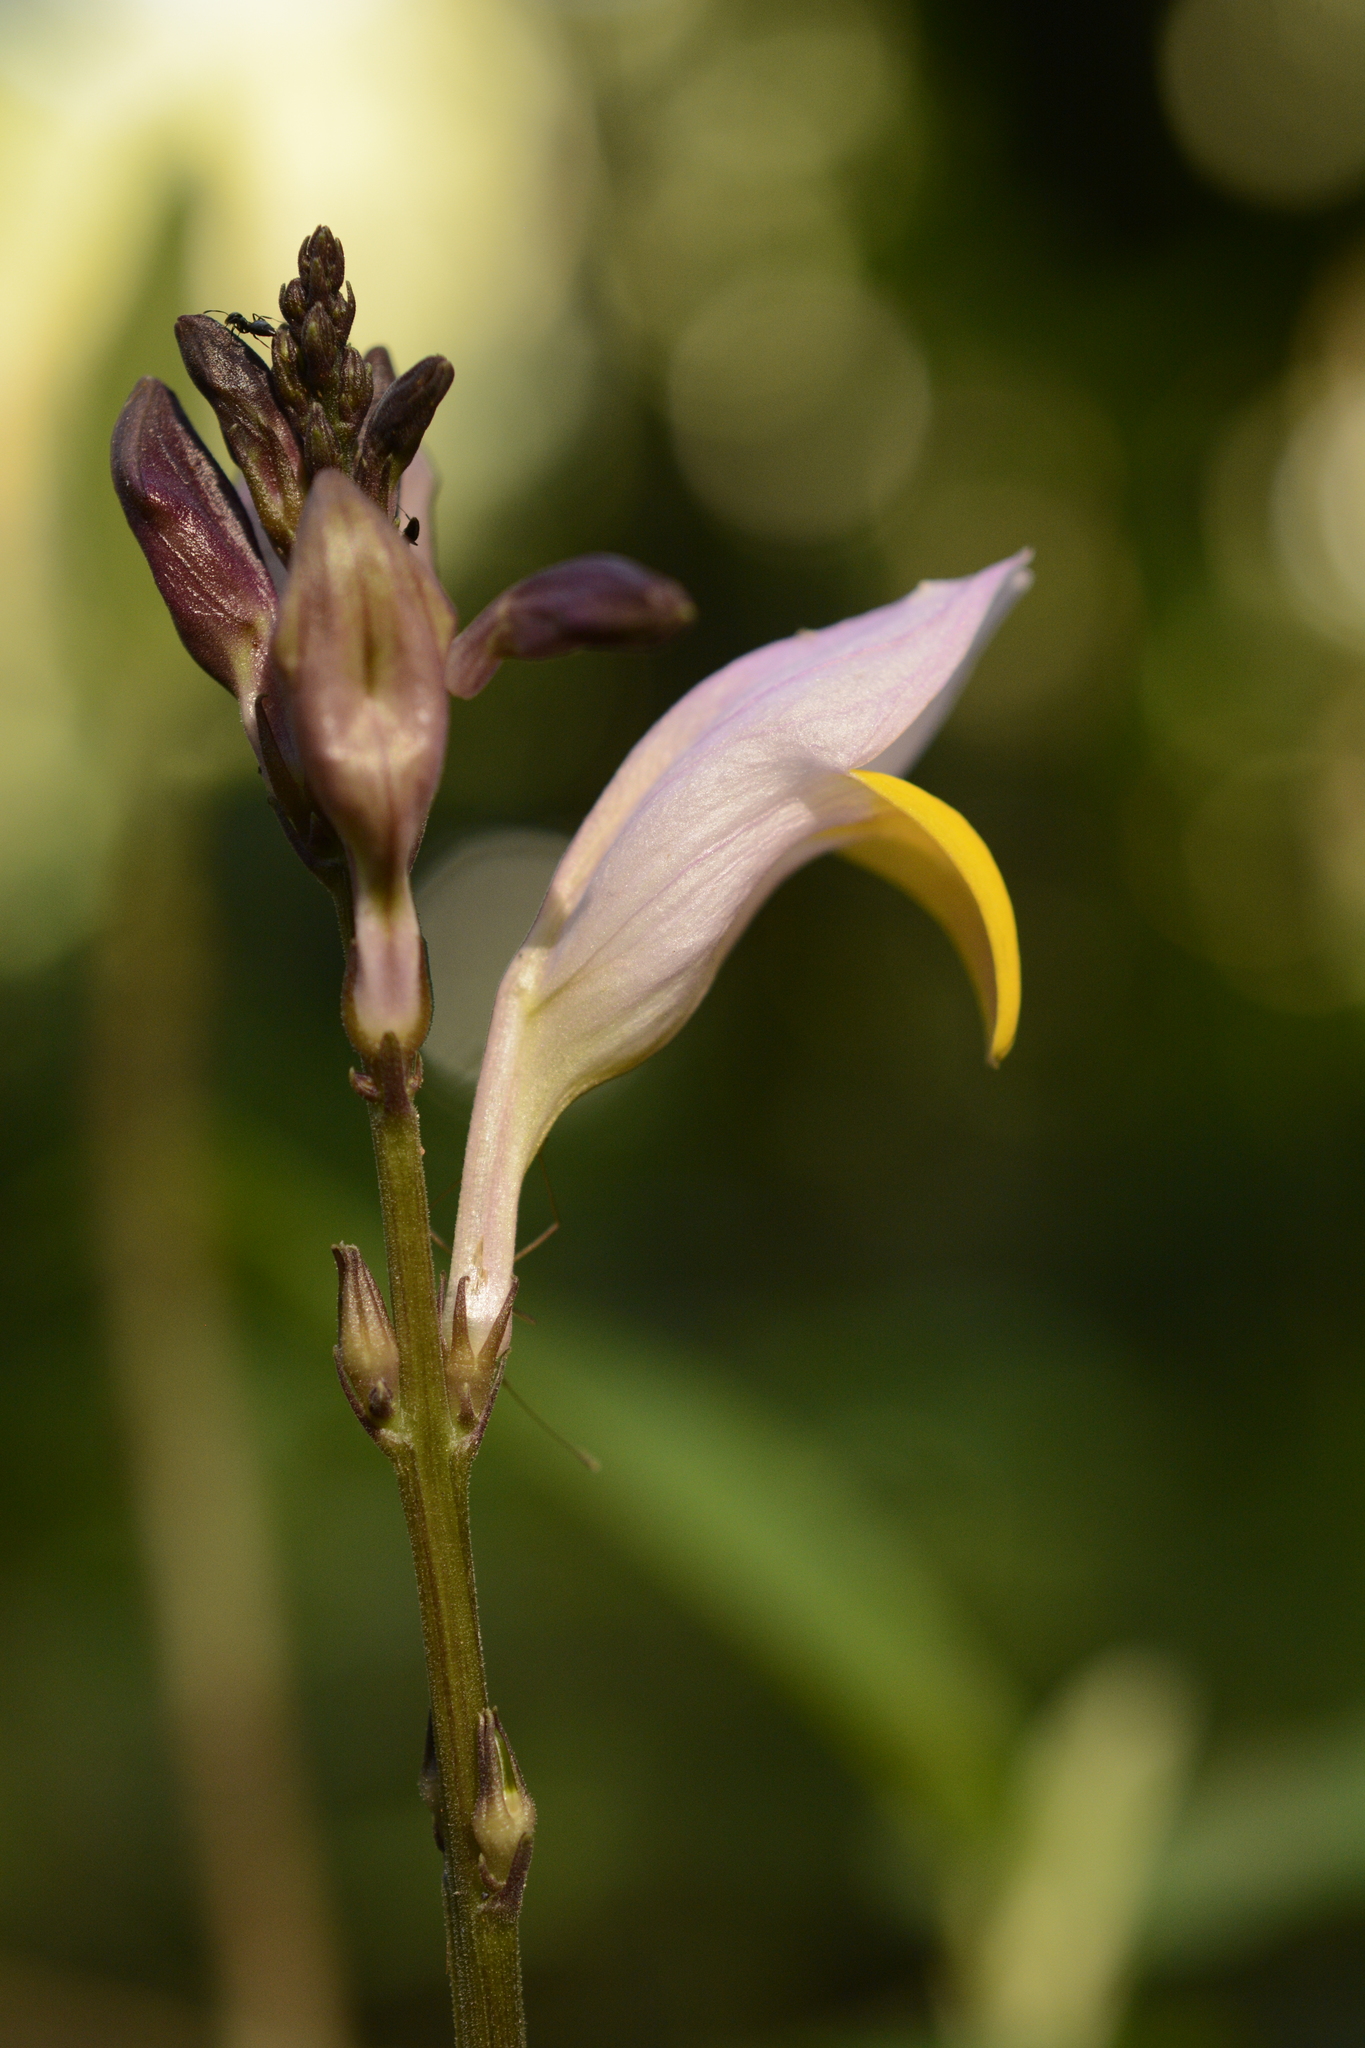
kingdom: Plantae
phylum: Tracheophyta
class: Magnoliopsida
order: Lamiales
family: Acanthaceae
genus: Gymnostachyum
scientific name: Gymnostachyum febrifugum
